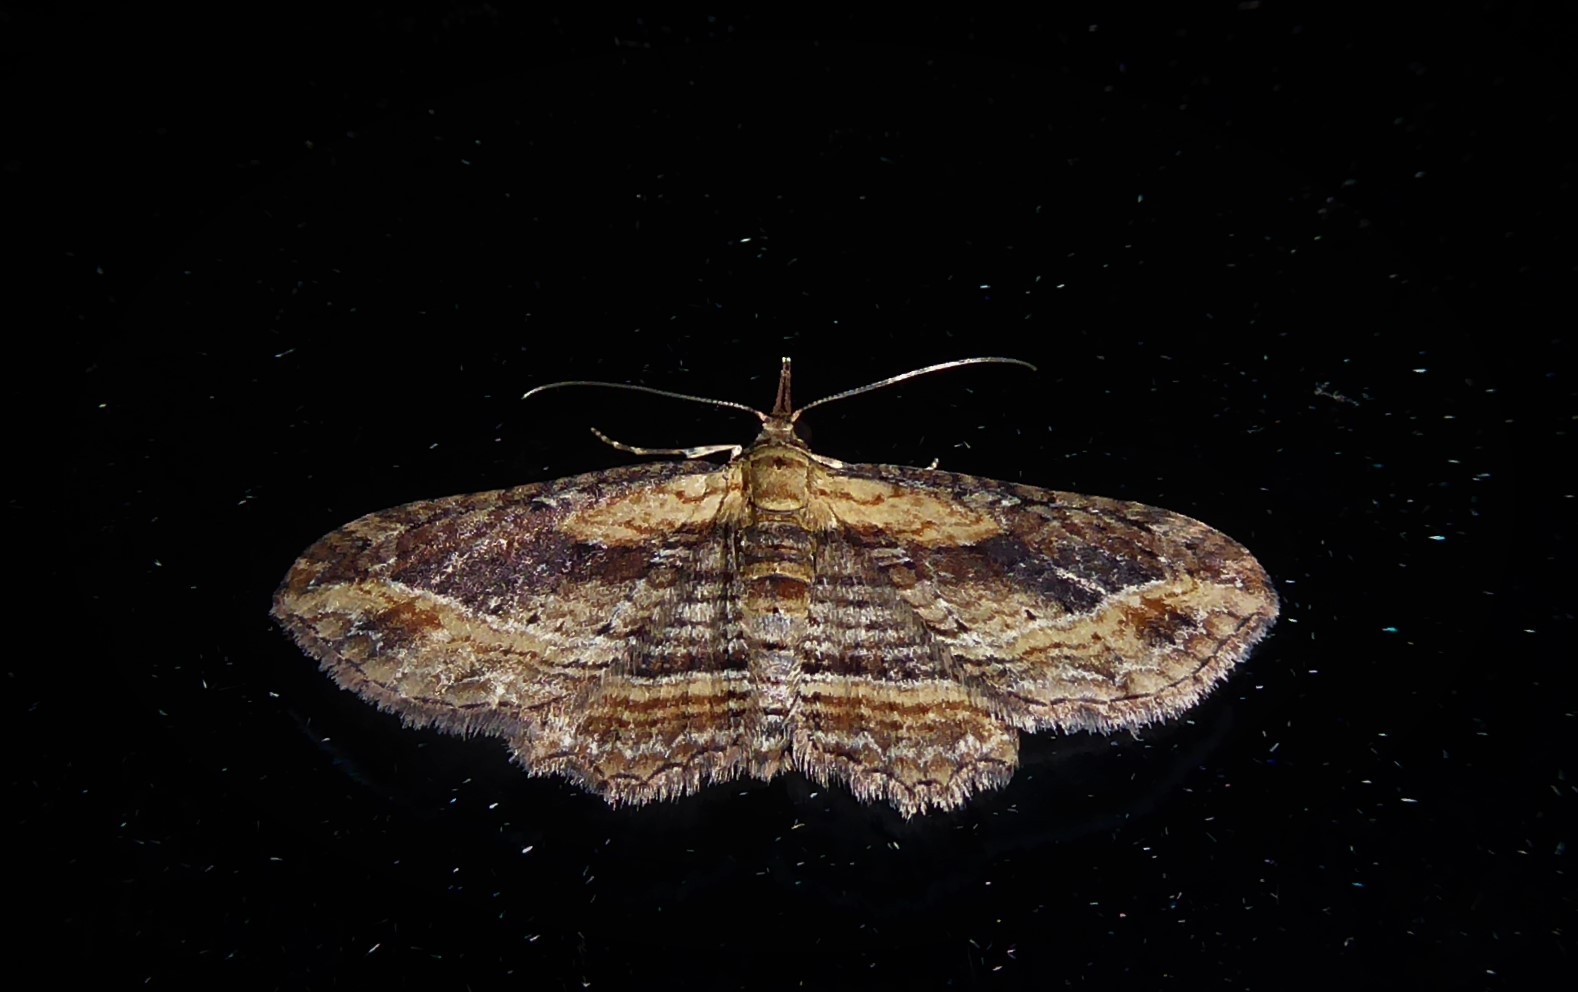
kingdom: Animalia
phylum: Arthropoda
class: Insecta
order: Lepidoptera
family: Geometridae
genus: Chloroclystis
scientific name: Chloroclystis filata
